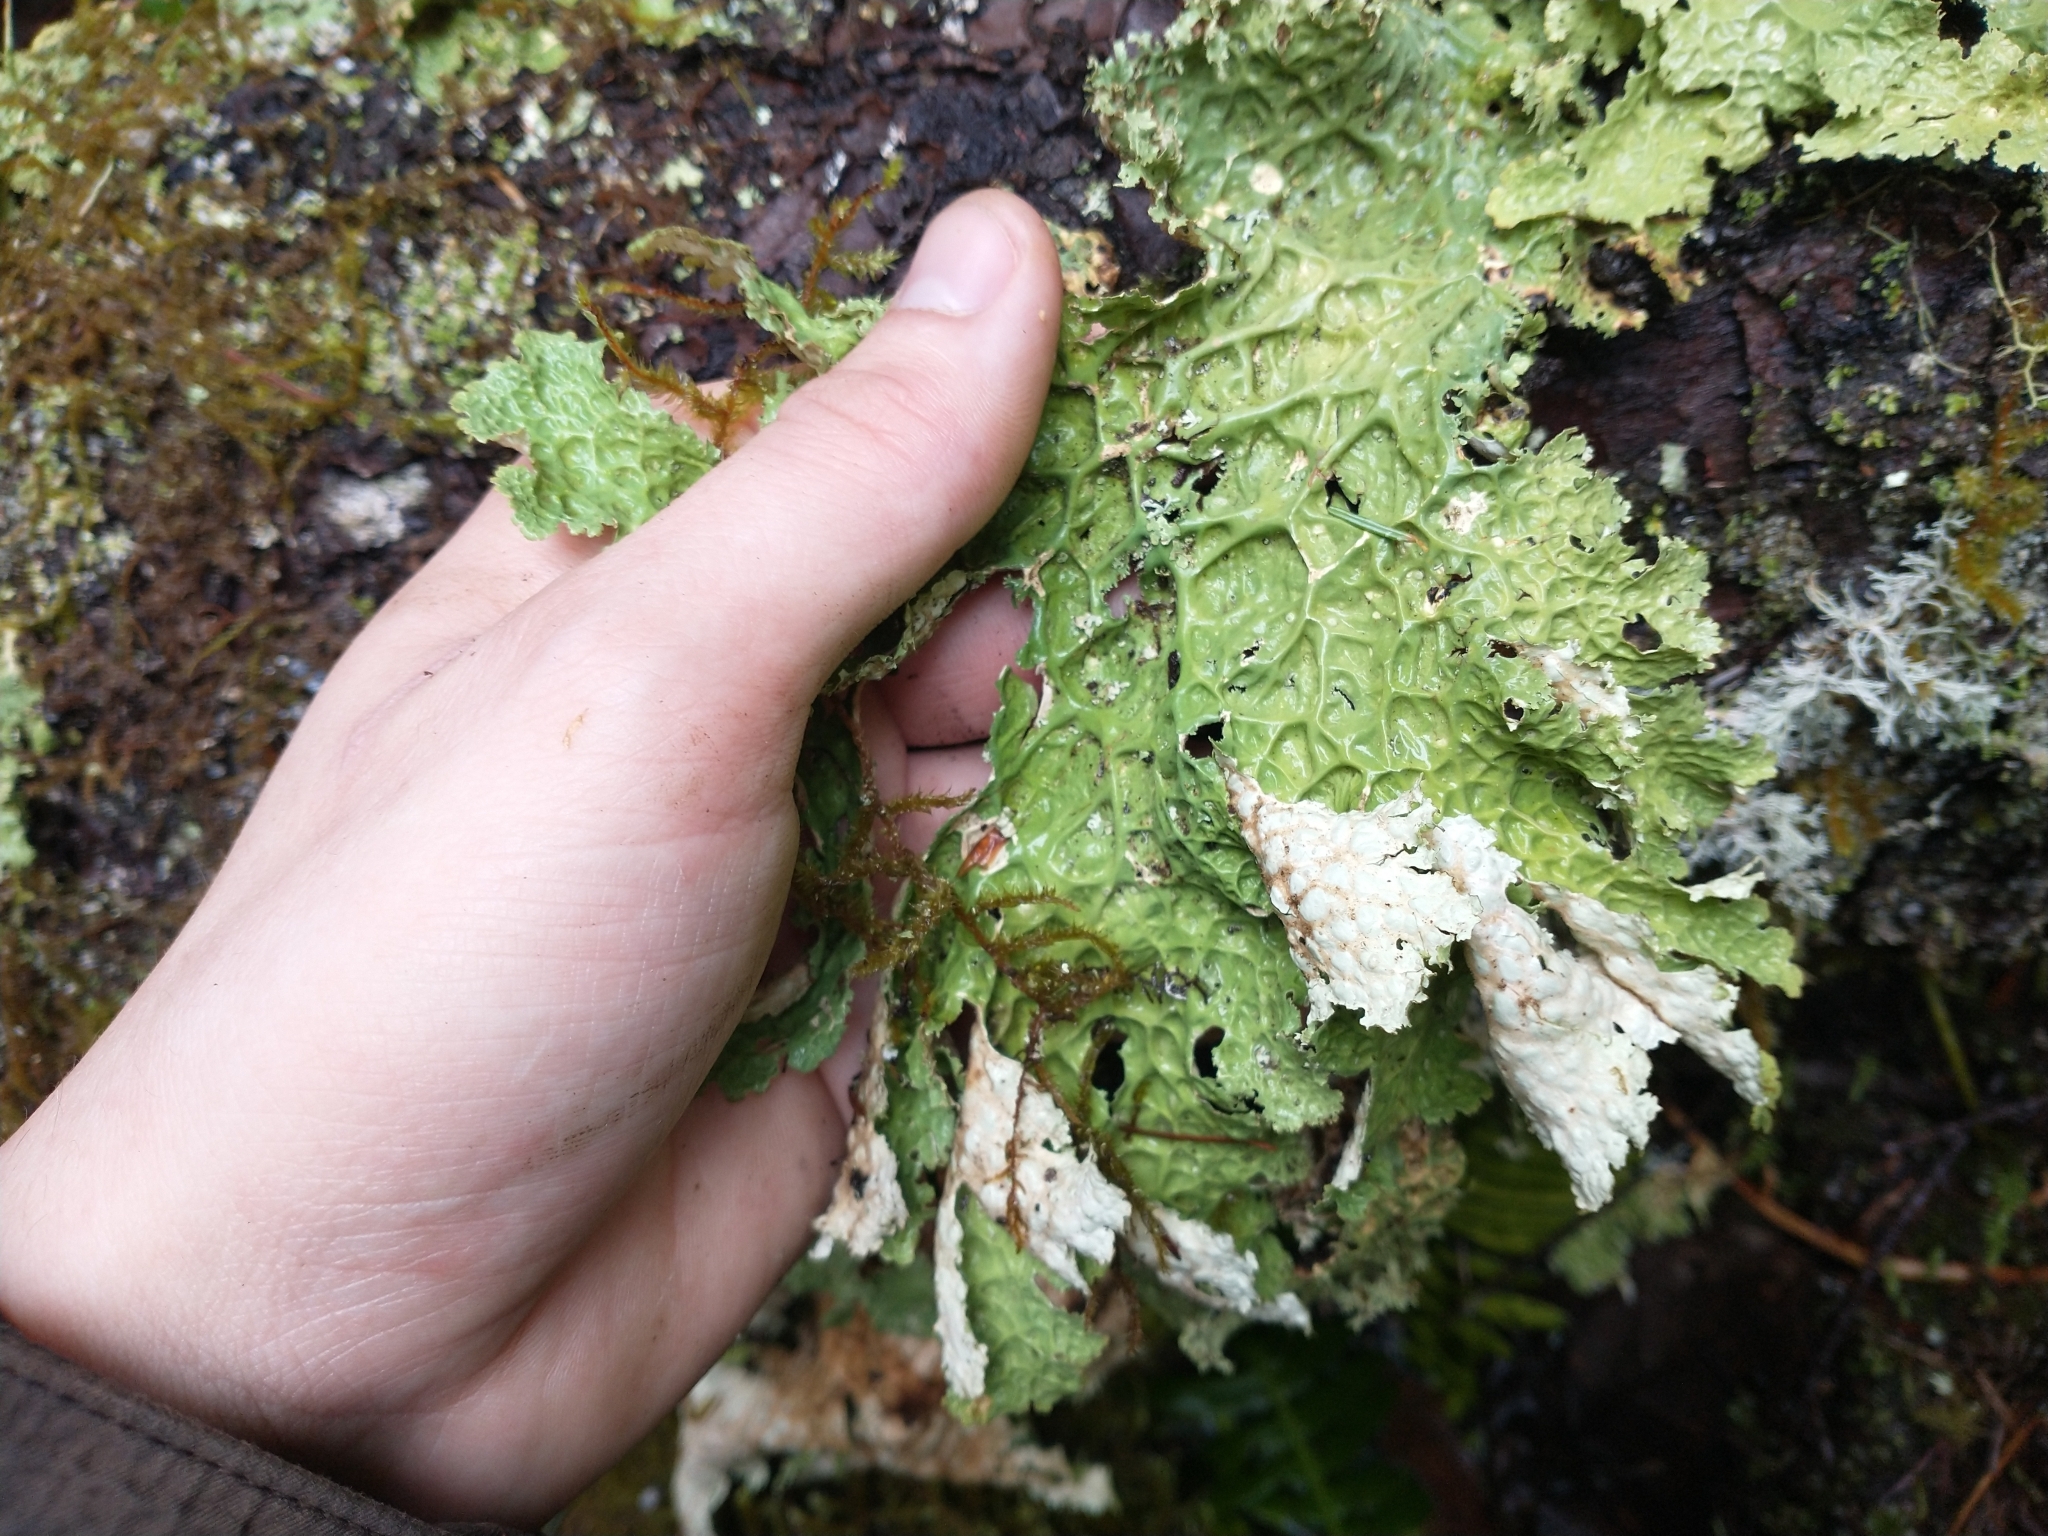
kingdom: Fungi
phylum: Ascomycota
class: Lecanoromycetes
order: Peltigerales
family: Lobariaceae
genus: Lobaria
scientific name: Lobaria oregana
